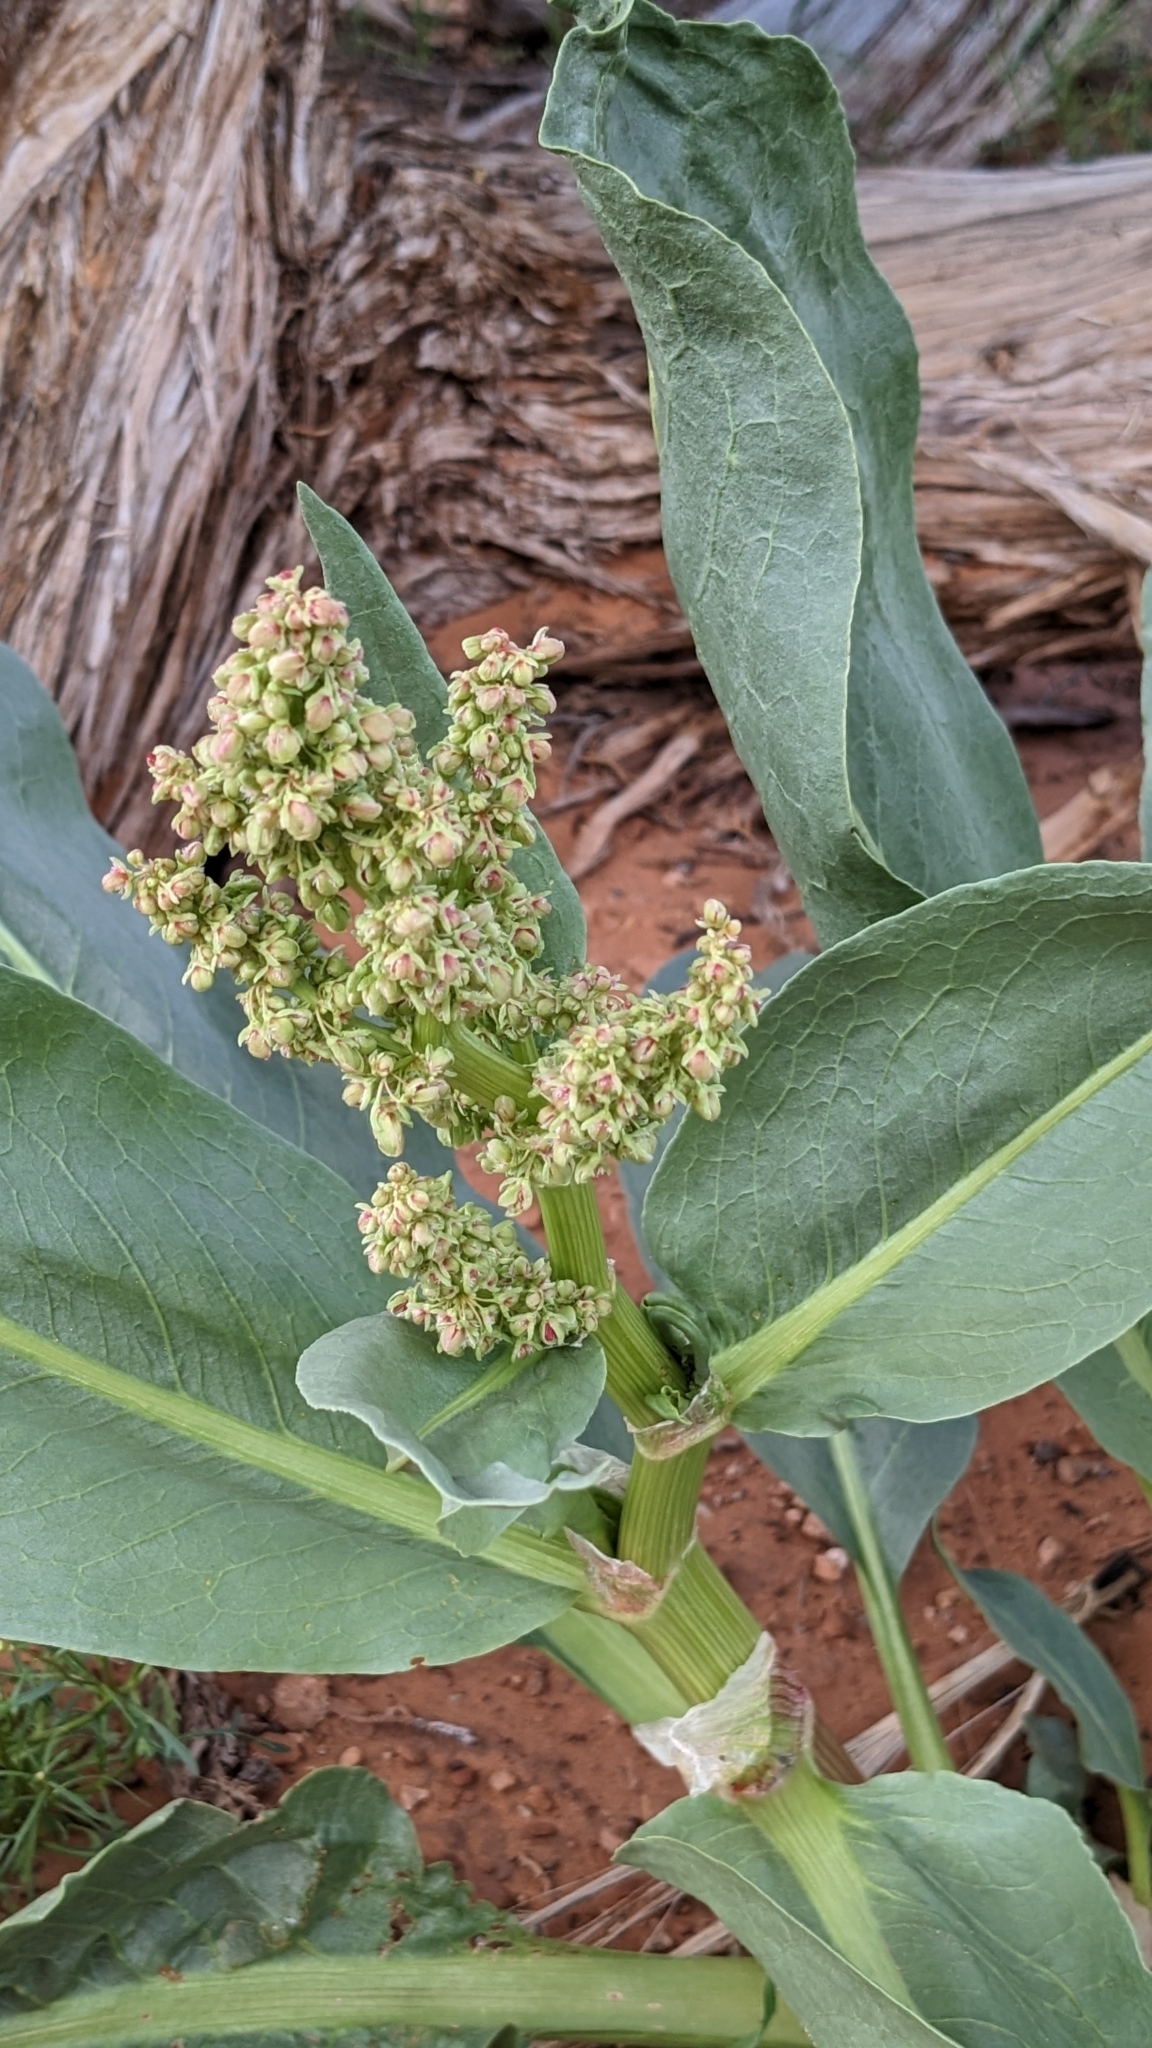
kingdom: Plantae
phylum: Tracheophyta
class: Magnoliopsida
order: Caryophyllales
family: Polygonaceae
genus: Rumex
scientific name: Rumex hymenosepalus
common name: Ganagra
